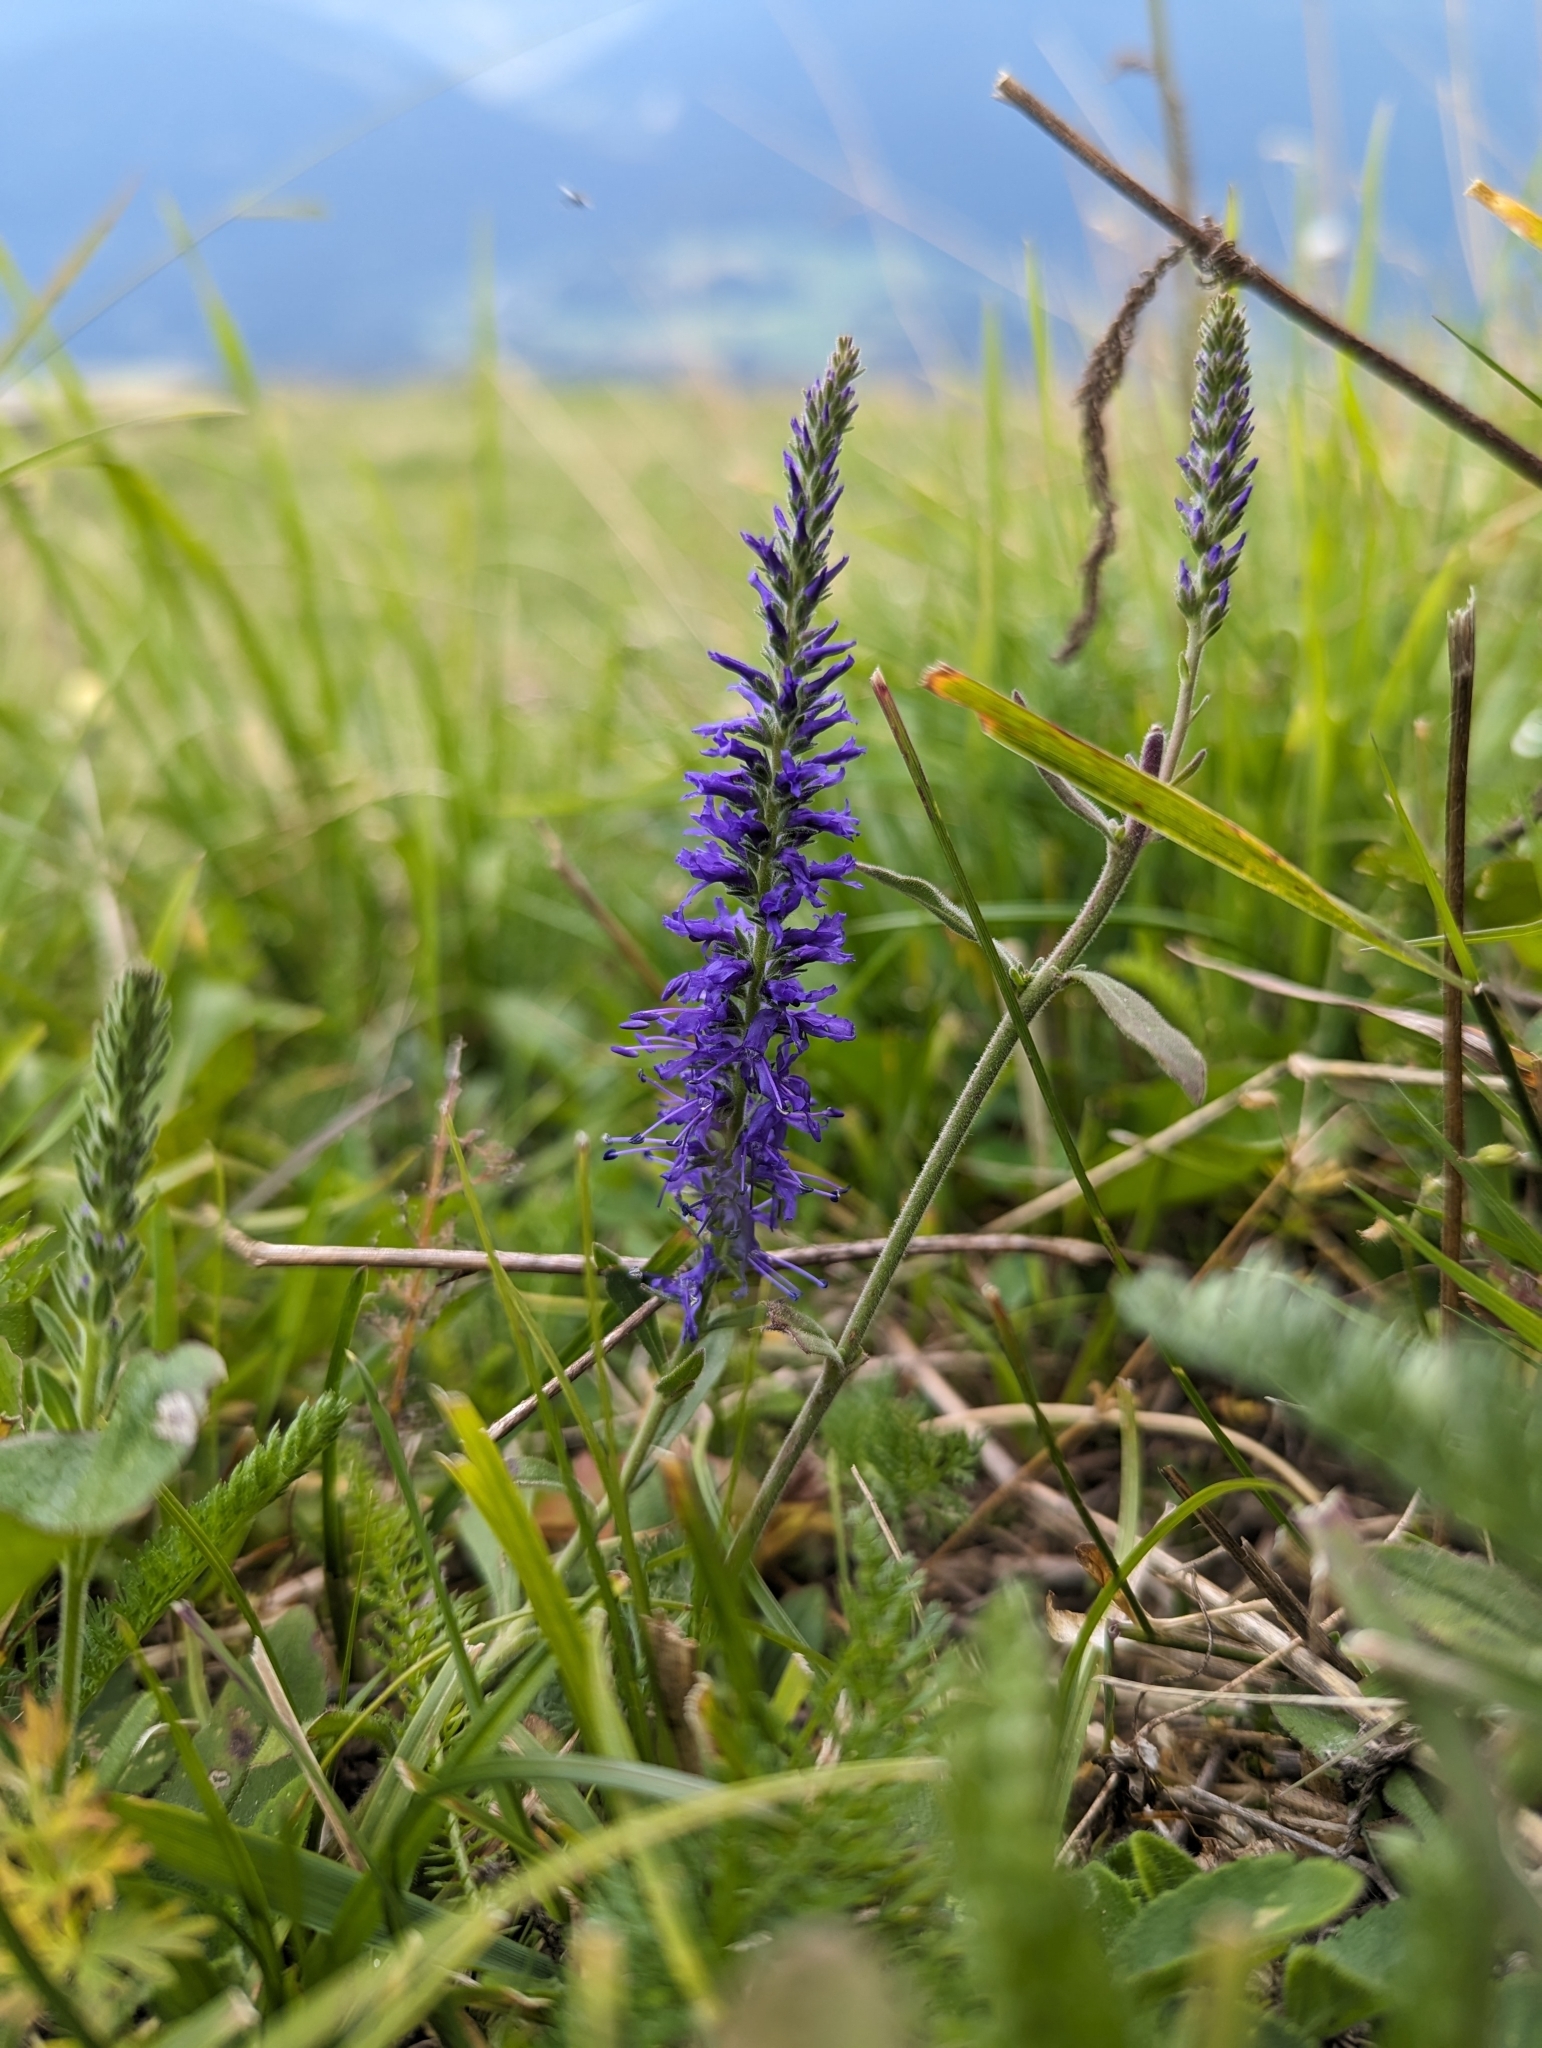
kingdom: Plantae
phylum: Tracheophyta
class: Magnoliopsida
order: Lamiales
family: Plantaginaceae
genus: Veronica
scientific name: Veronica spicata
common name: Spiked speedwell
